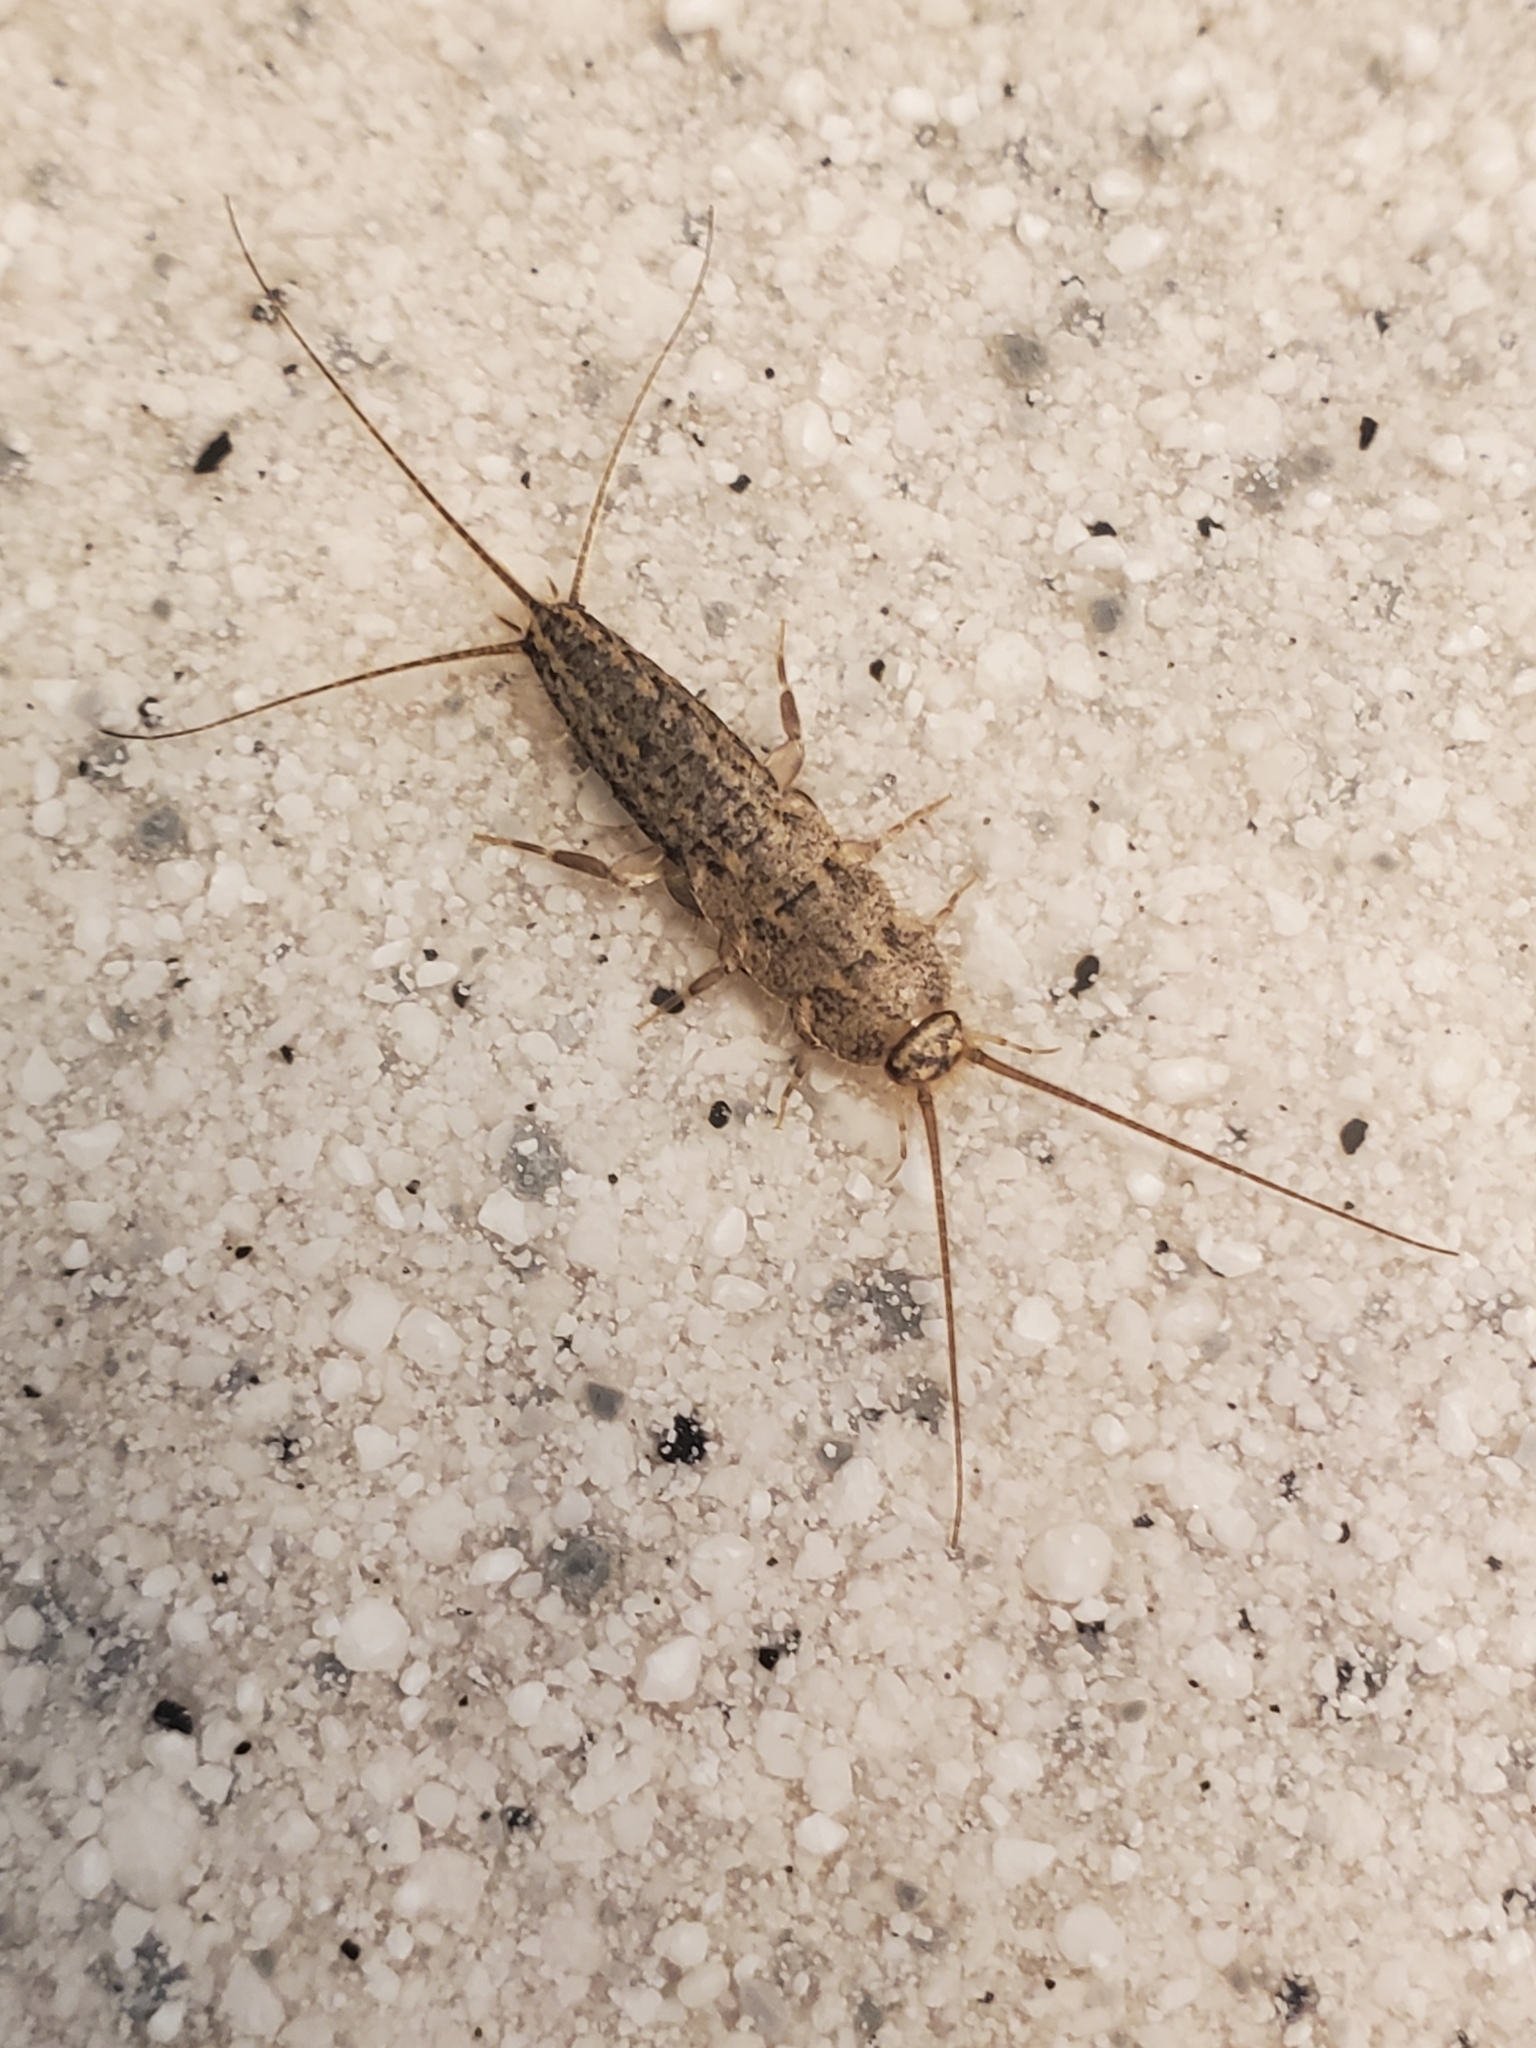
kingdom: Animalia
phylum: Arthropoda
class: Insecta
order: Zygentoma
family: Lepismatidae
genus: Ctenolepisma
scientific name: Ctenolepisma lineata
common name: Four-lined silverfish
